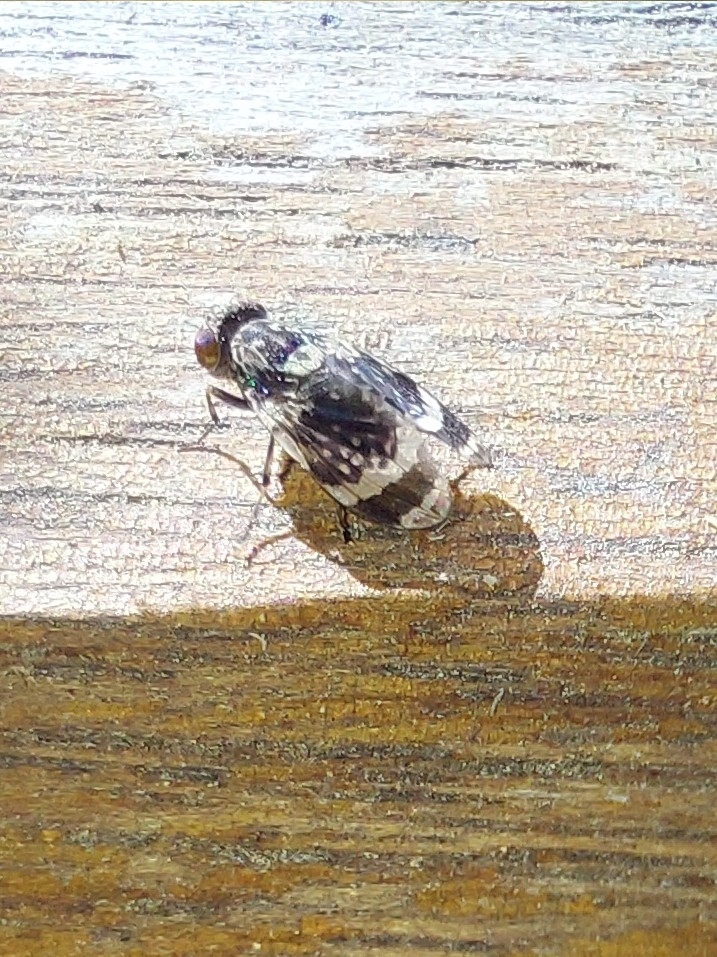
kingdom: Animalia
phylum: Arthropoda
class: Insecta
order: Diptera
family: Lauxaniidae
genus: Cestrotus
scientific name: Cestrotus striatus
